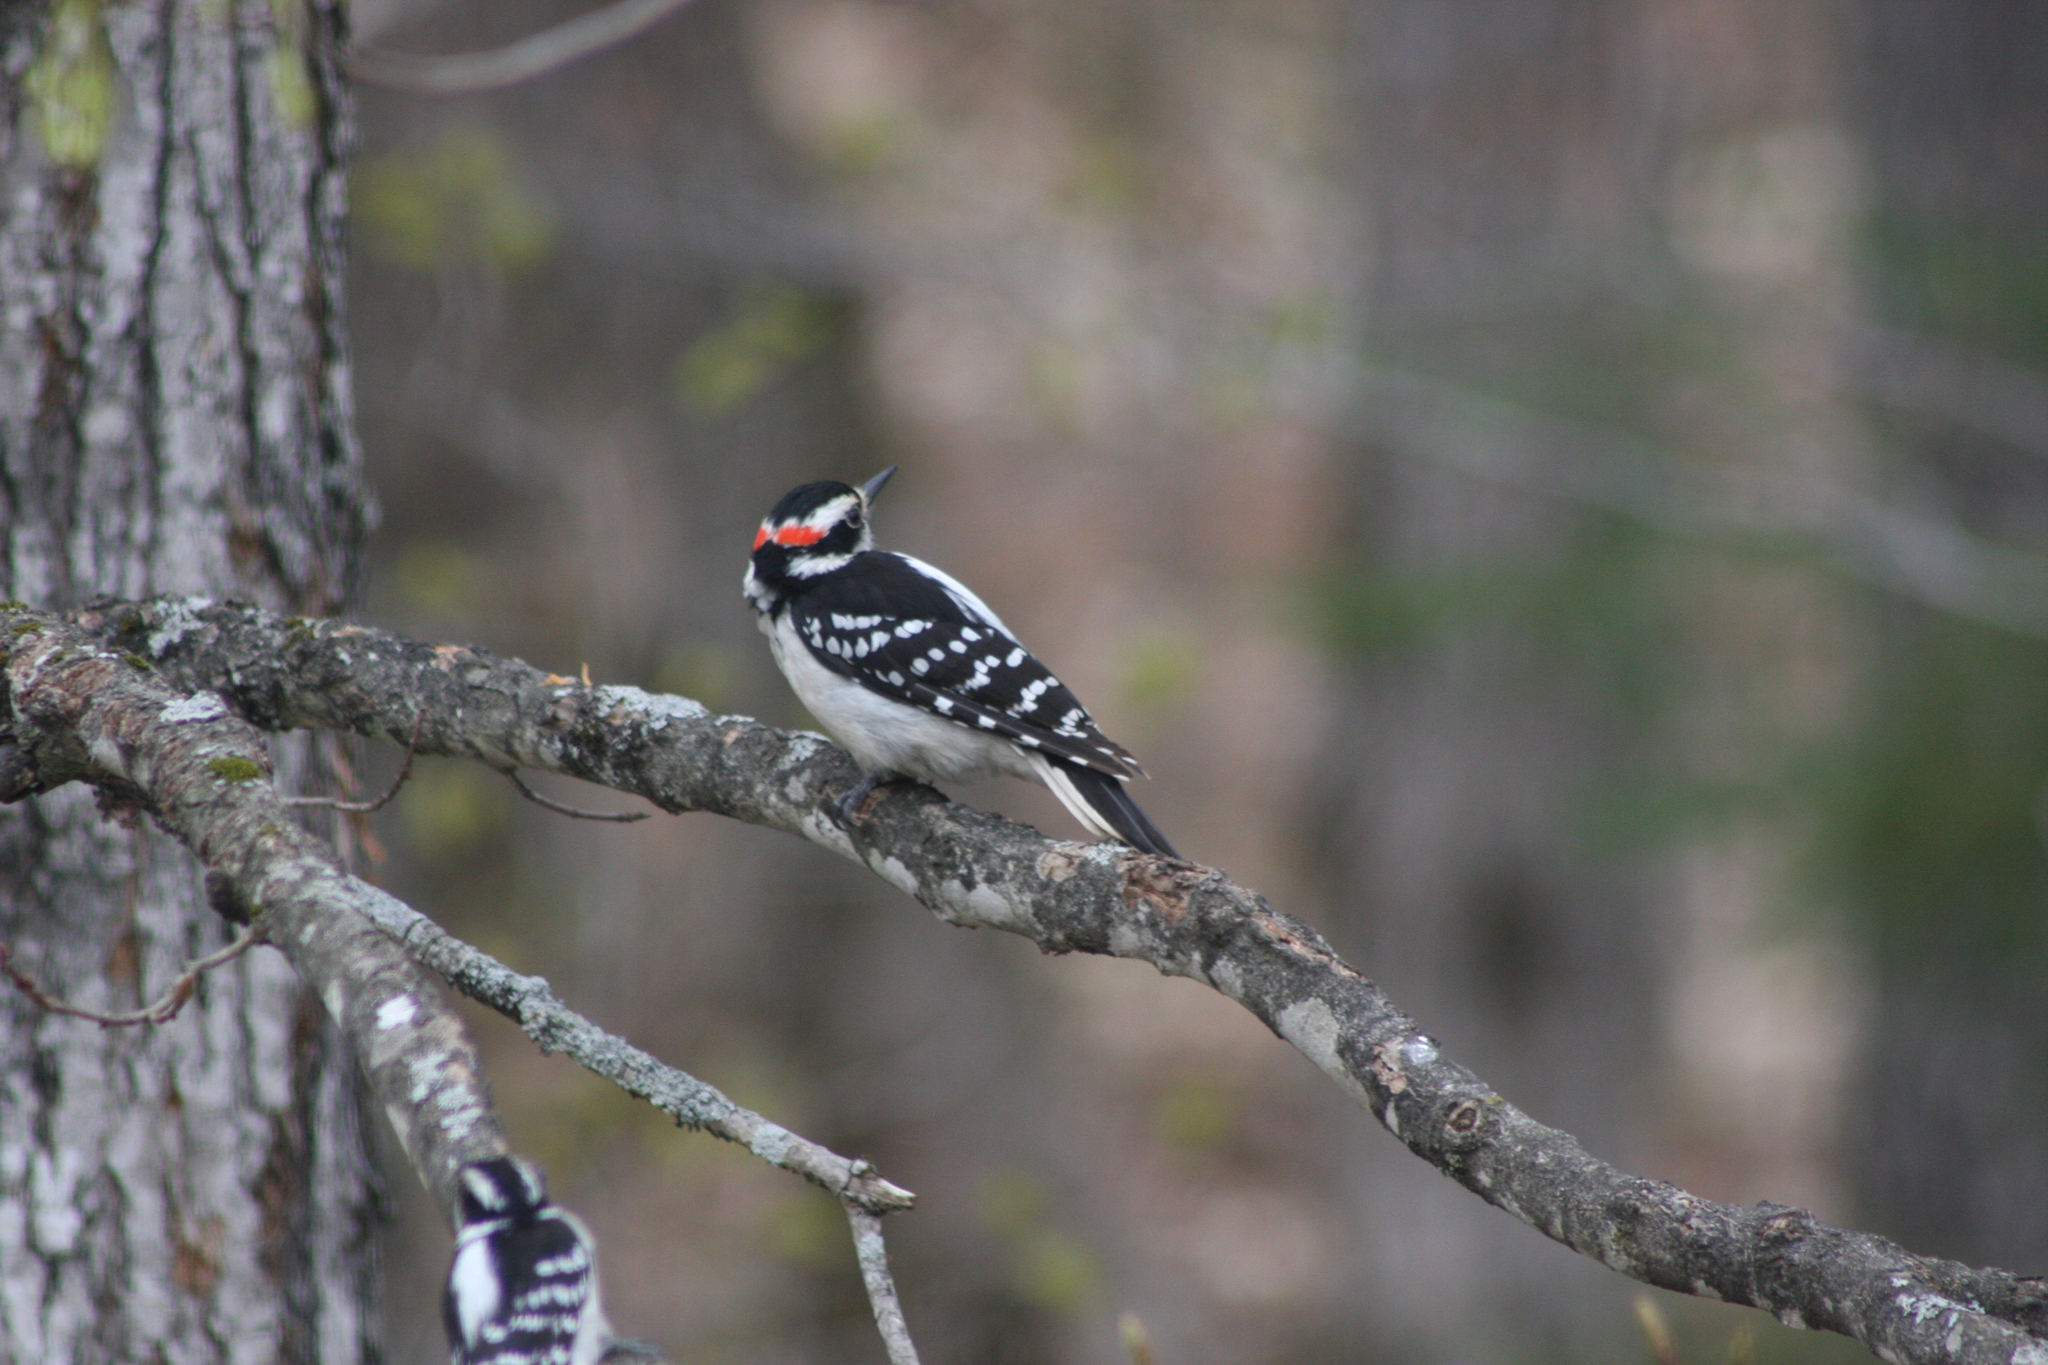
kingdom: Animalia
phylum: Chordata
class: Aves
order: Piciformes
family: Picidae
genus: Leuconotopicus
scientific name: Leuconotopicus villosus
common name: Hairy woodpecker
